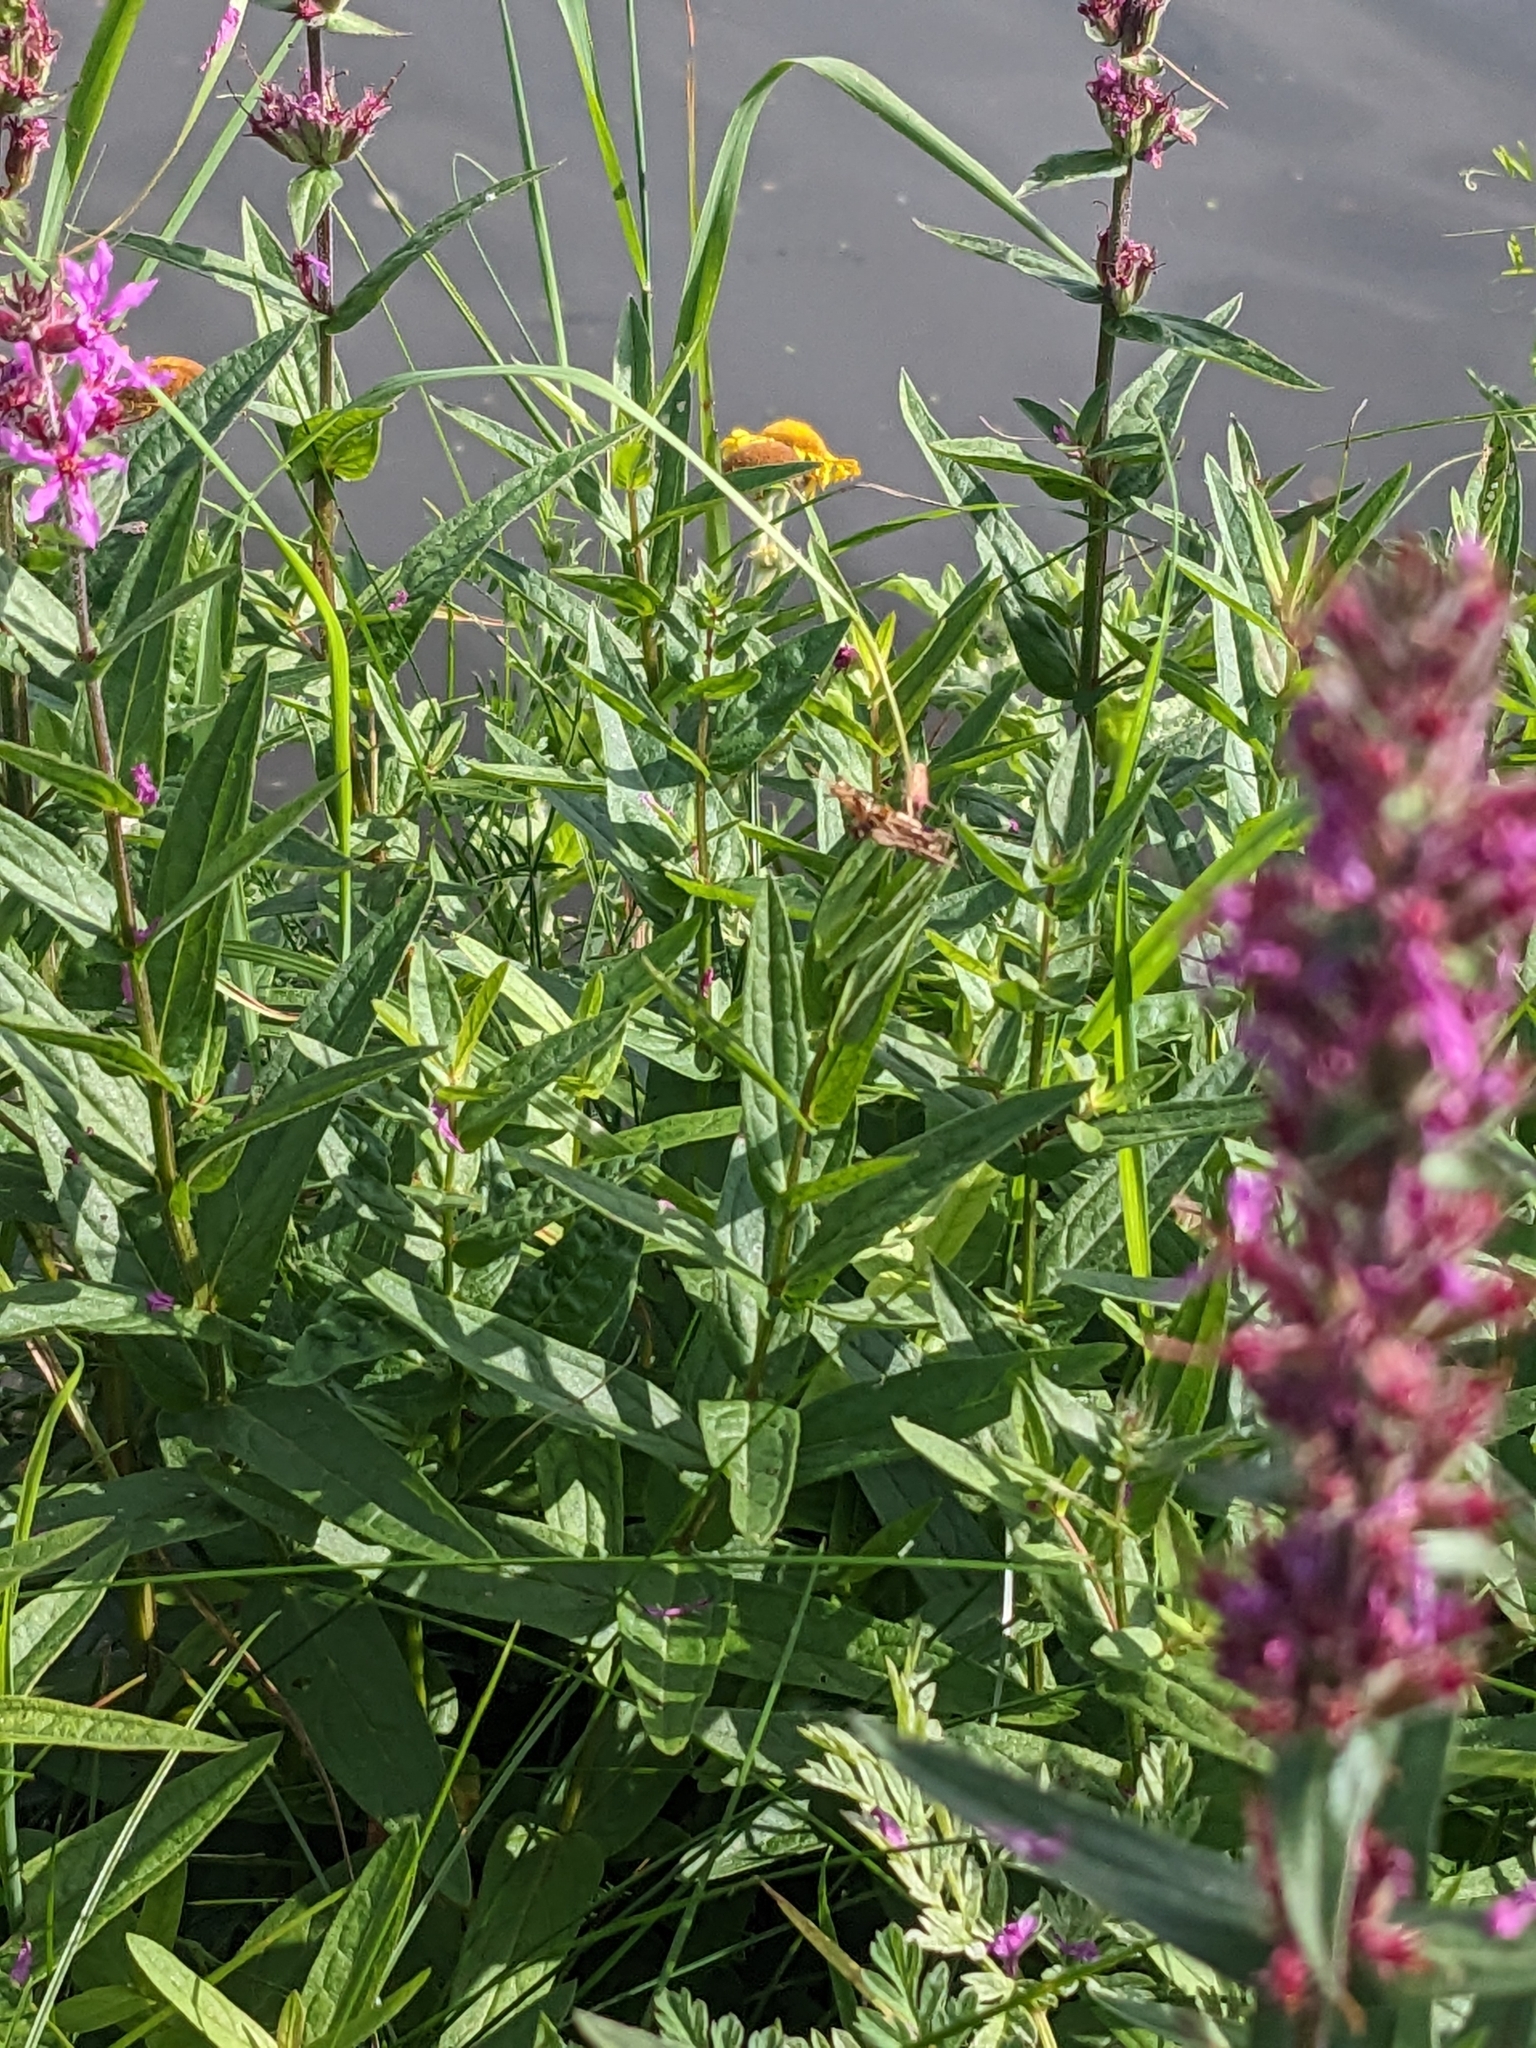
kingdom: Plantae
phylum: Tracheophyta
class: Magnoliopsida
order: Myrtales
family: Lythraceae
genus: Lythrum
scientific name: Lythrum salicaria
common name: Purple loosestrife
